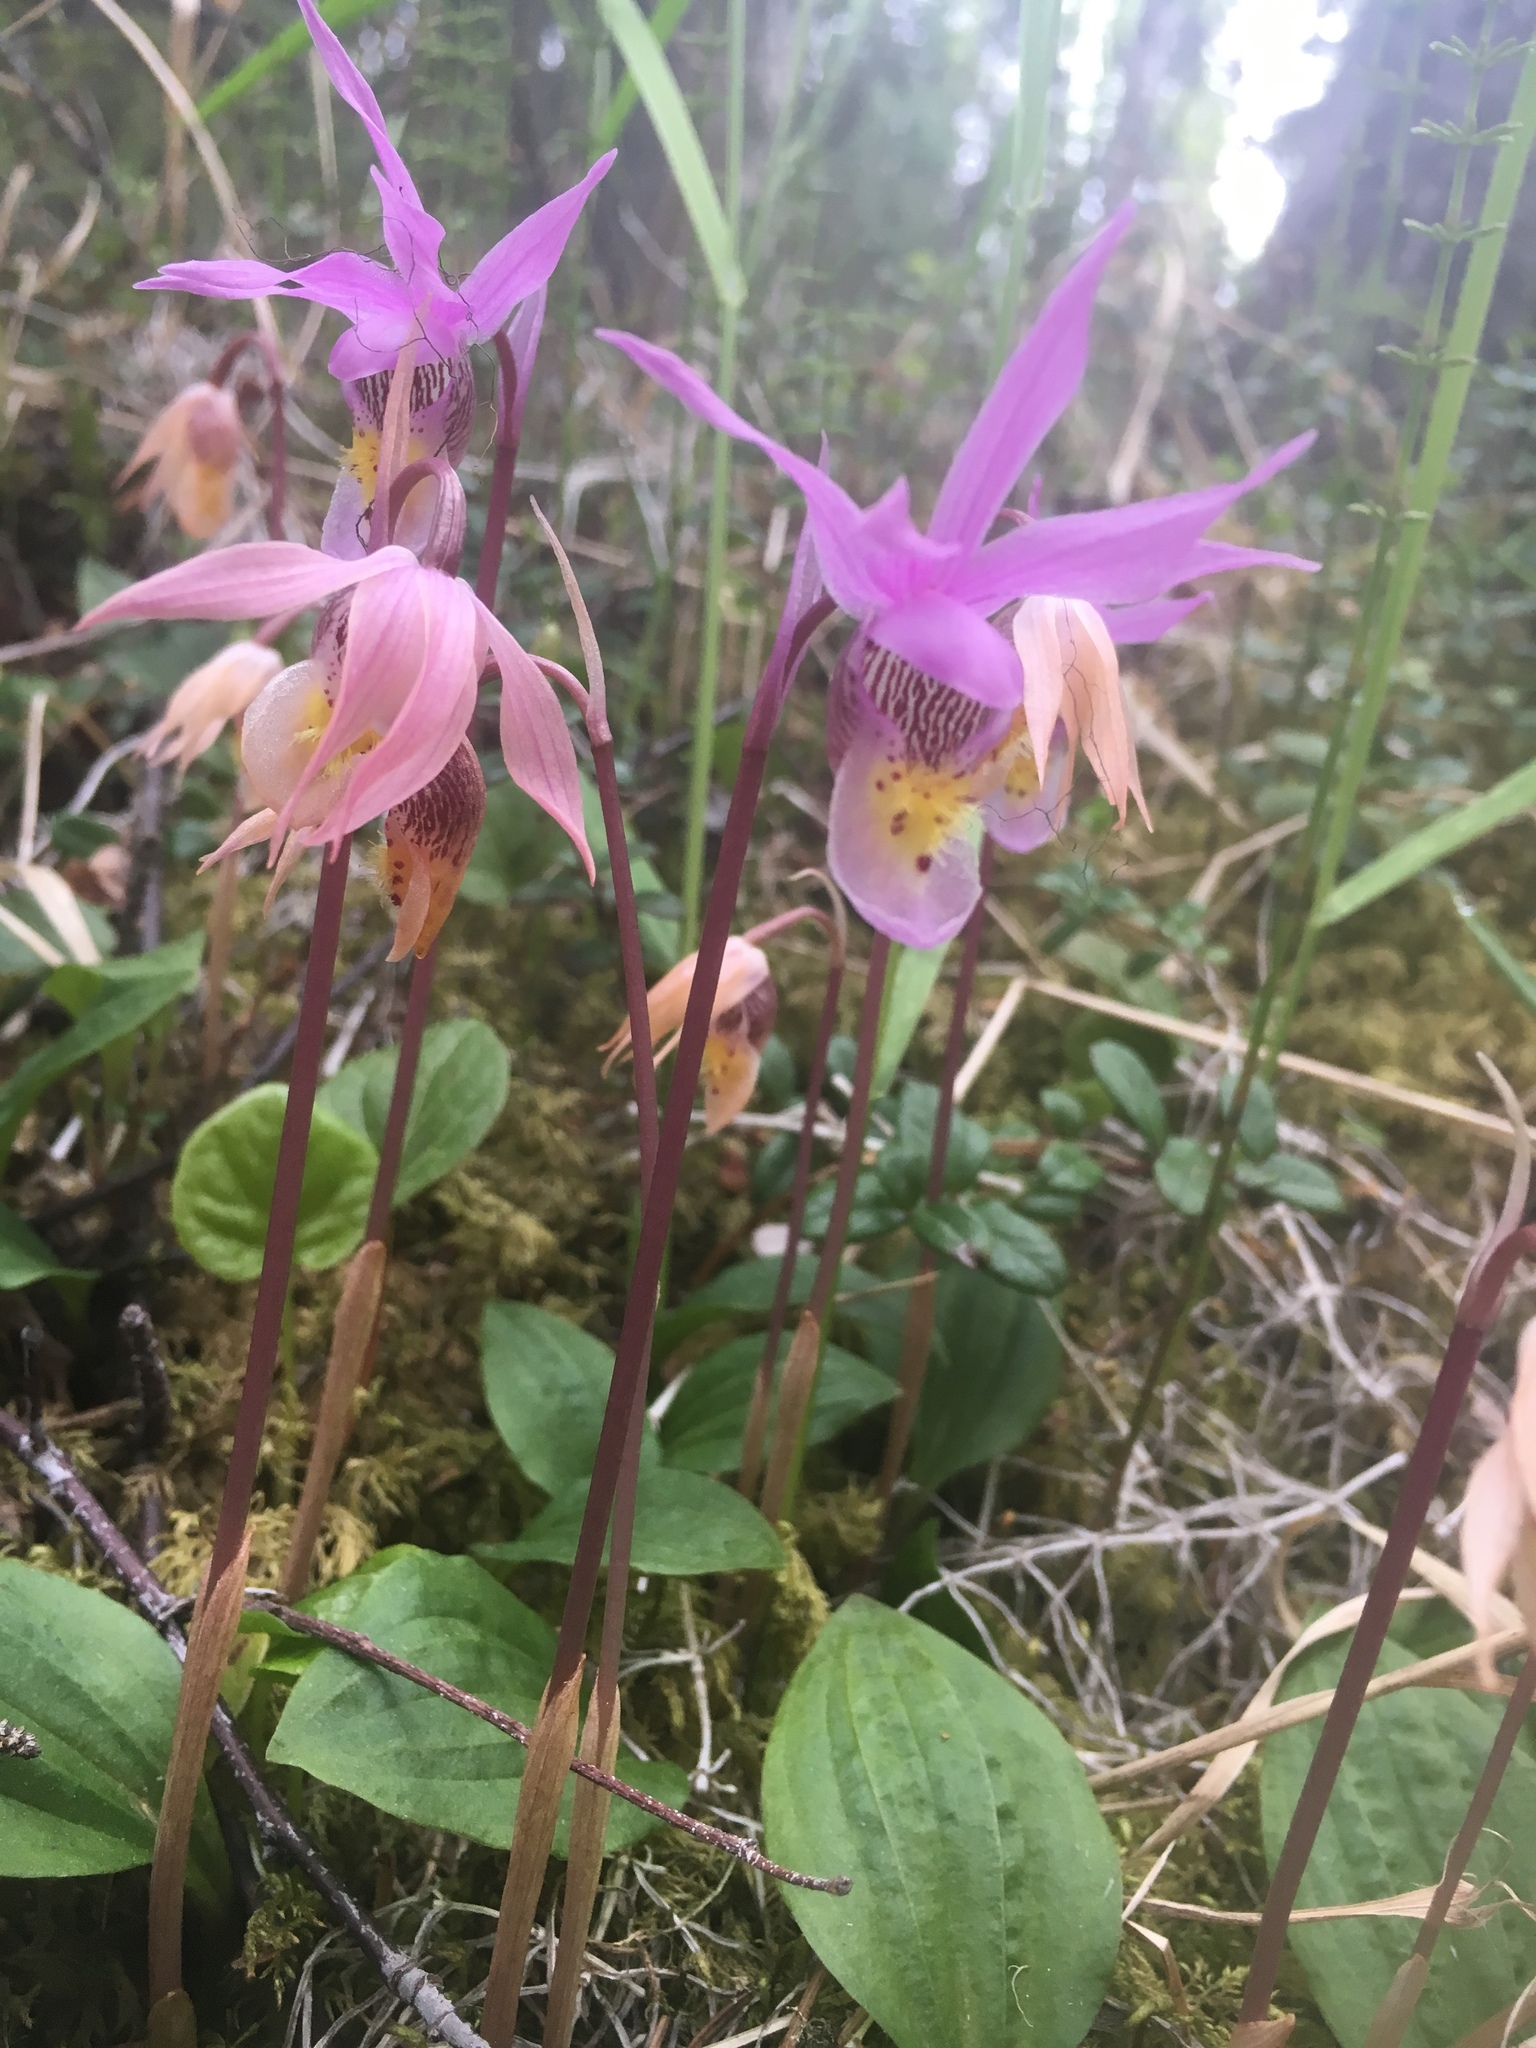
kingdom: Plantae
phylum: Tracheophyta
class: Liliopsida
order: Asparagales
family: Orchidaceae
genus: Calypso
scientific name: Calypso bulbosa
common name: Calypso
